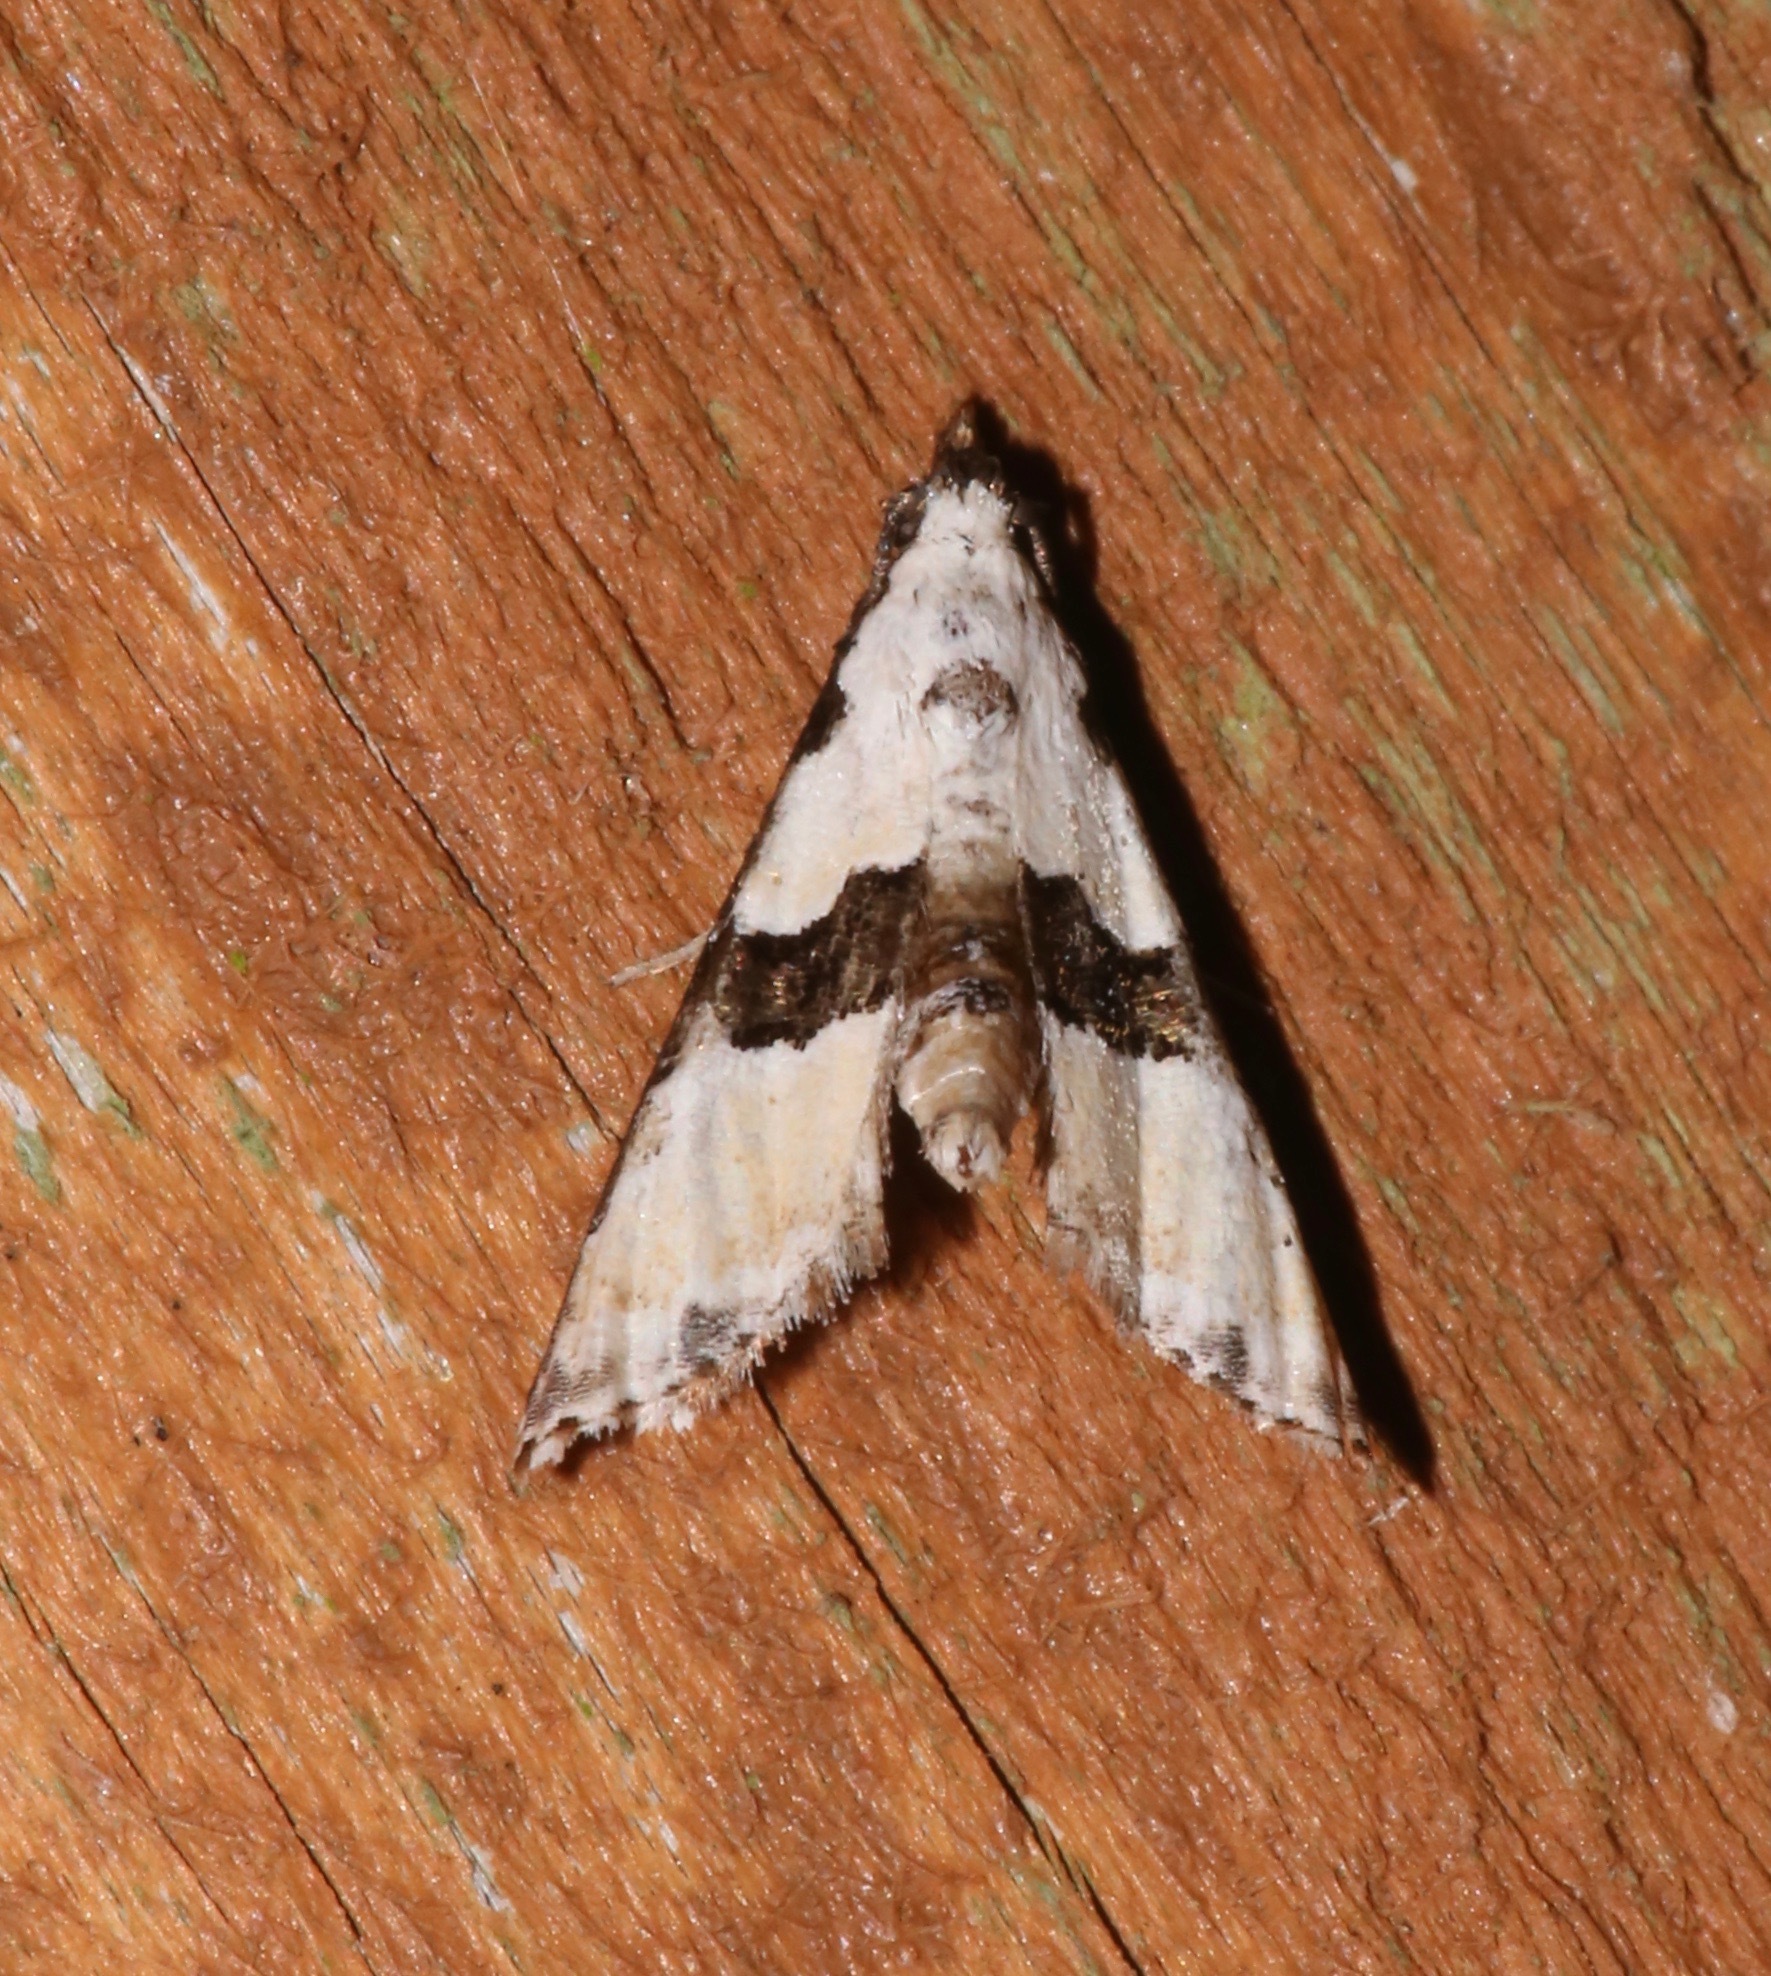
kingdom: Animalia
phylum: Arthropoda
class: Insecta
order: Lepidoptera
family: Noctuidae
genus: Nigetia
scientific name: Nigetia formosalis
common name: Thin-winged owlet
